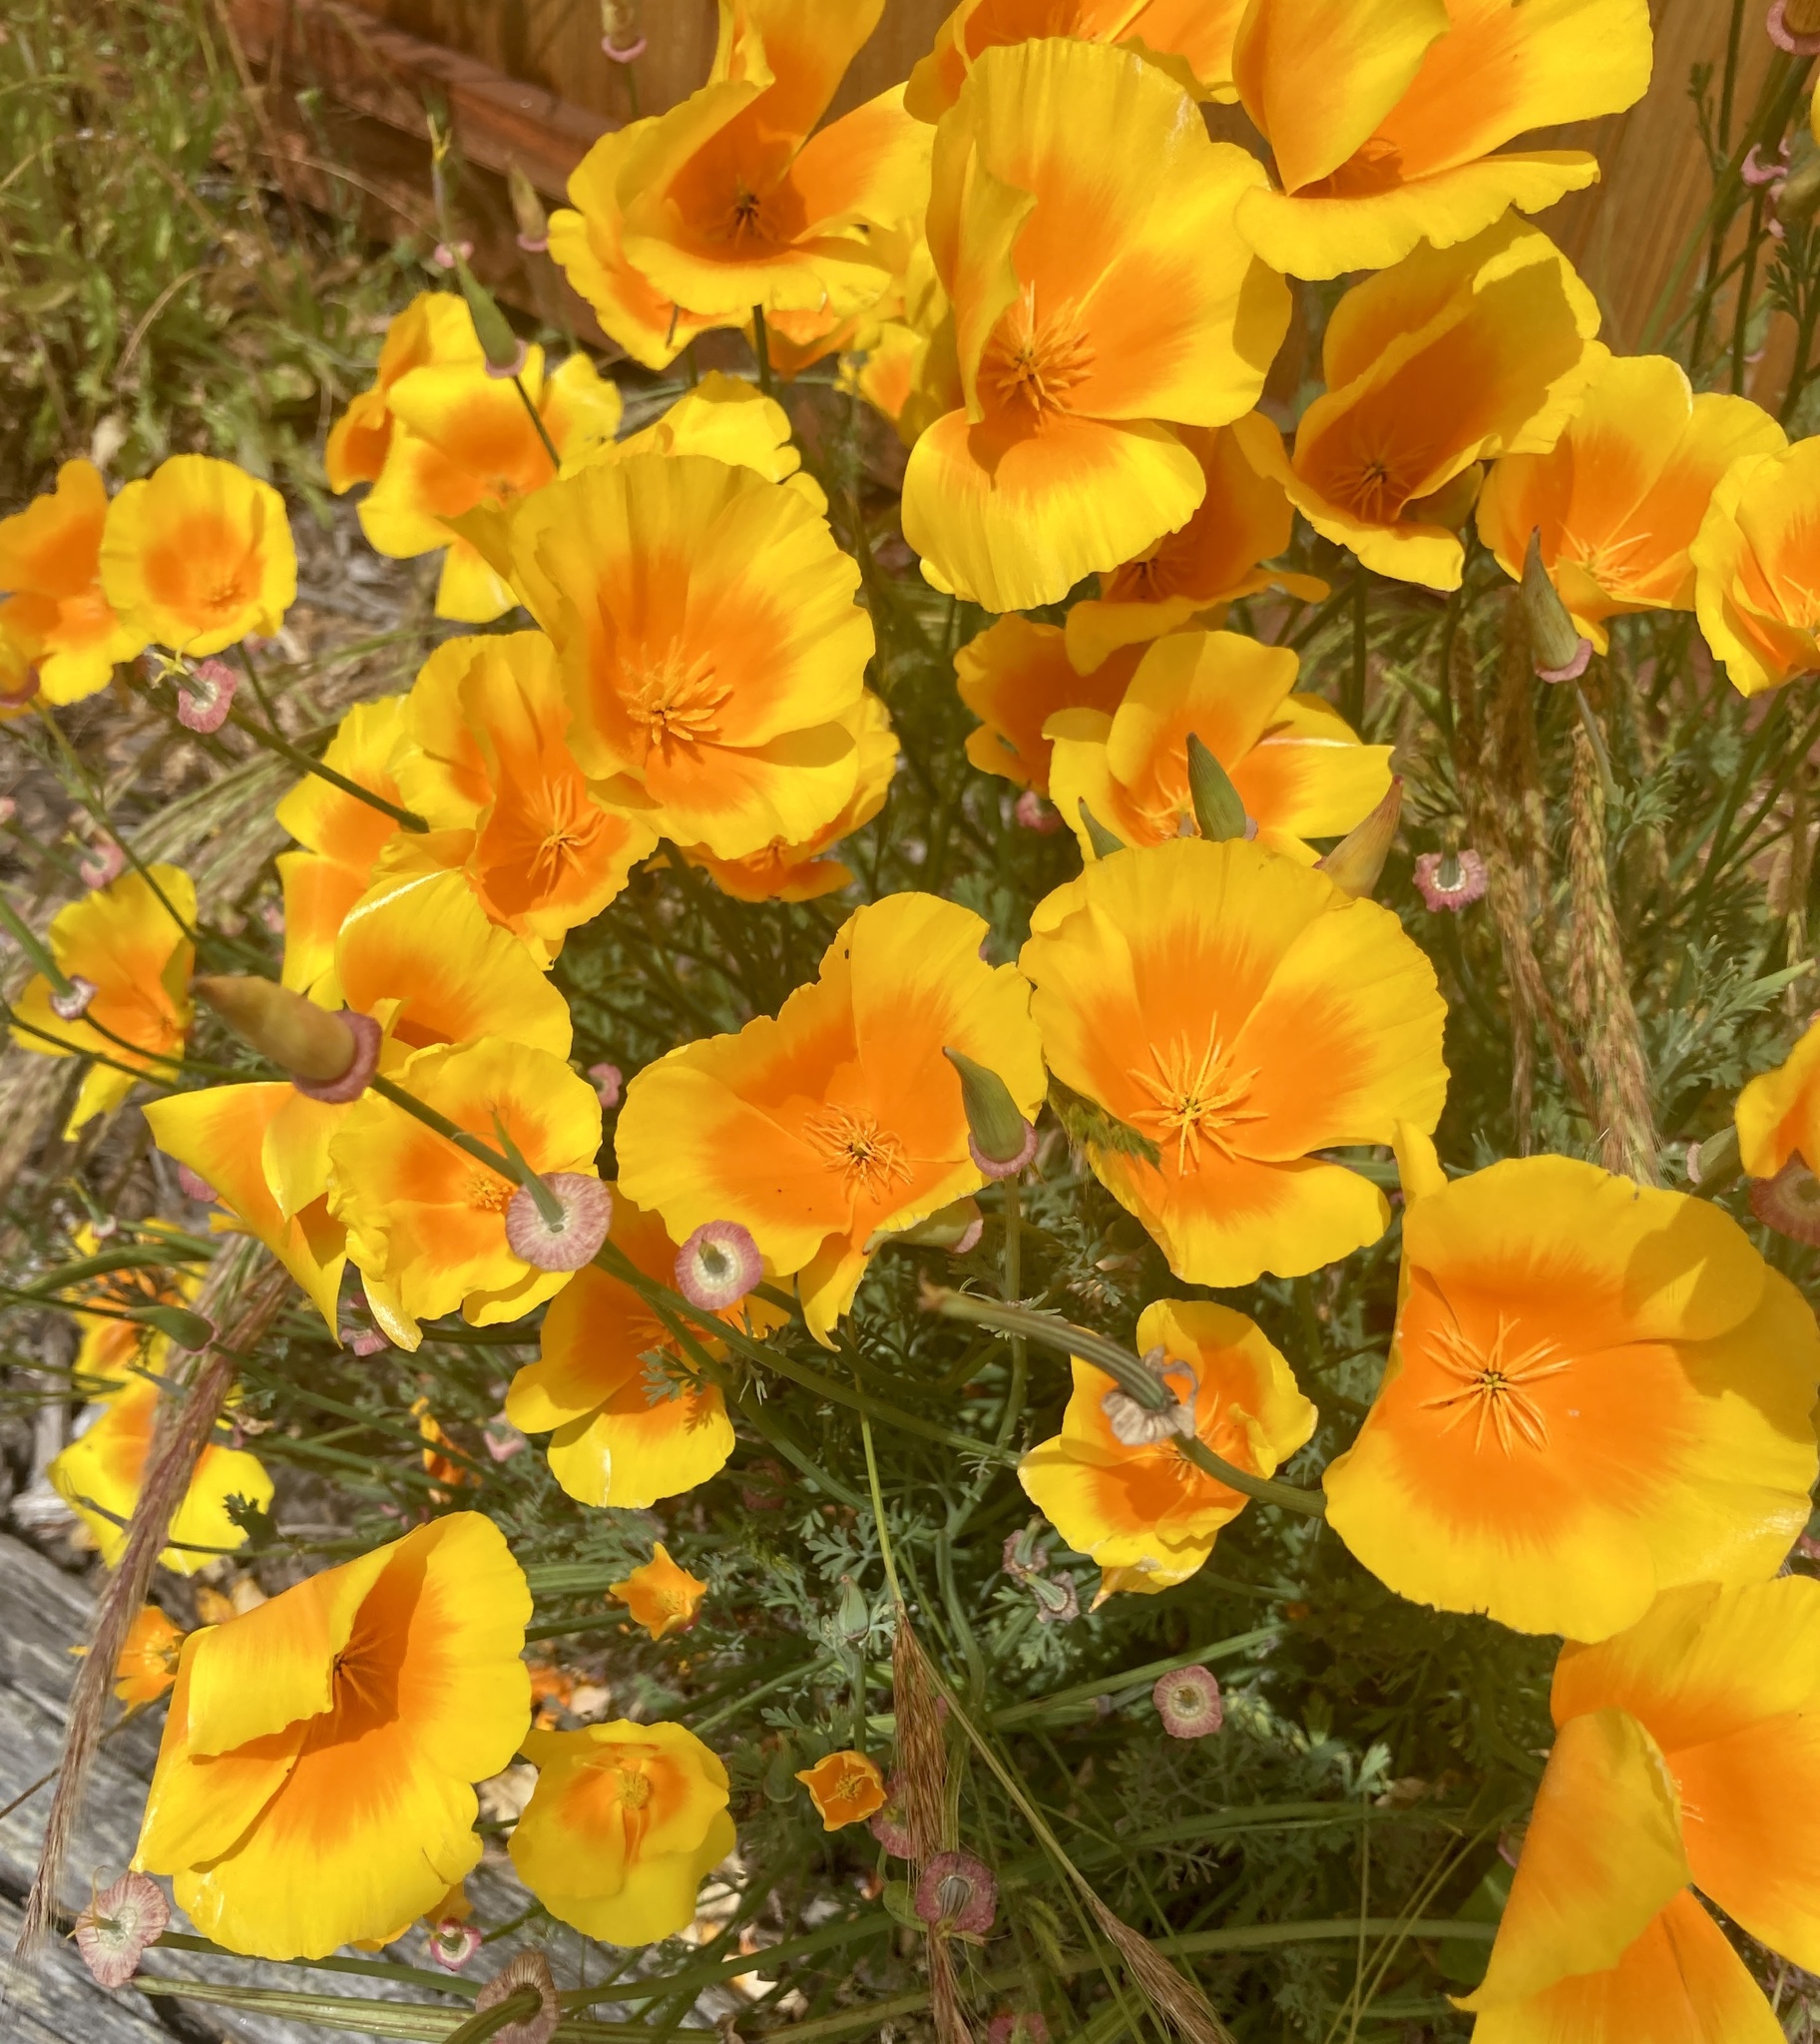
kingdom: Plantae
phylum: Tracheophyta
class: Magnoliopsida
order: Ranunculales
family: Papaveraceae
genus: Eschscholzia
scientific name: Eschscholzia californica
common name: California poppy
